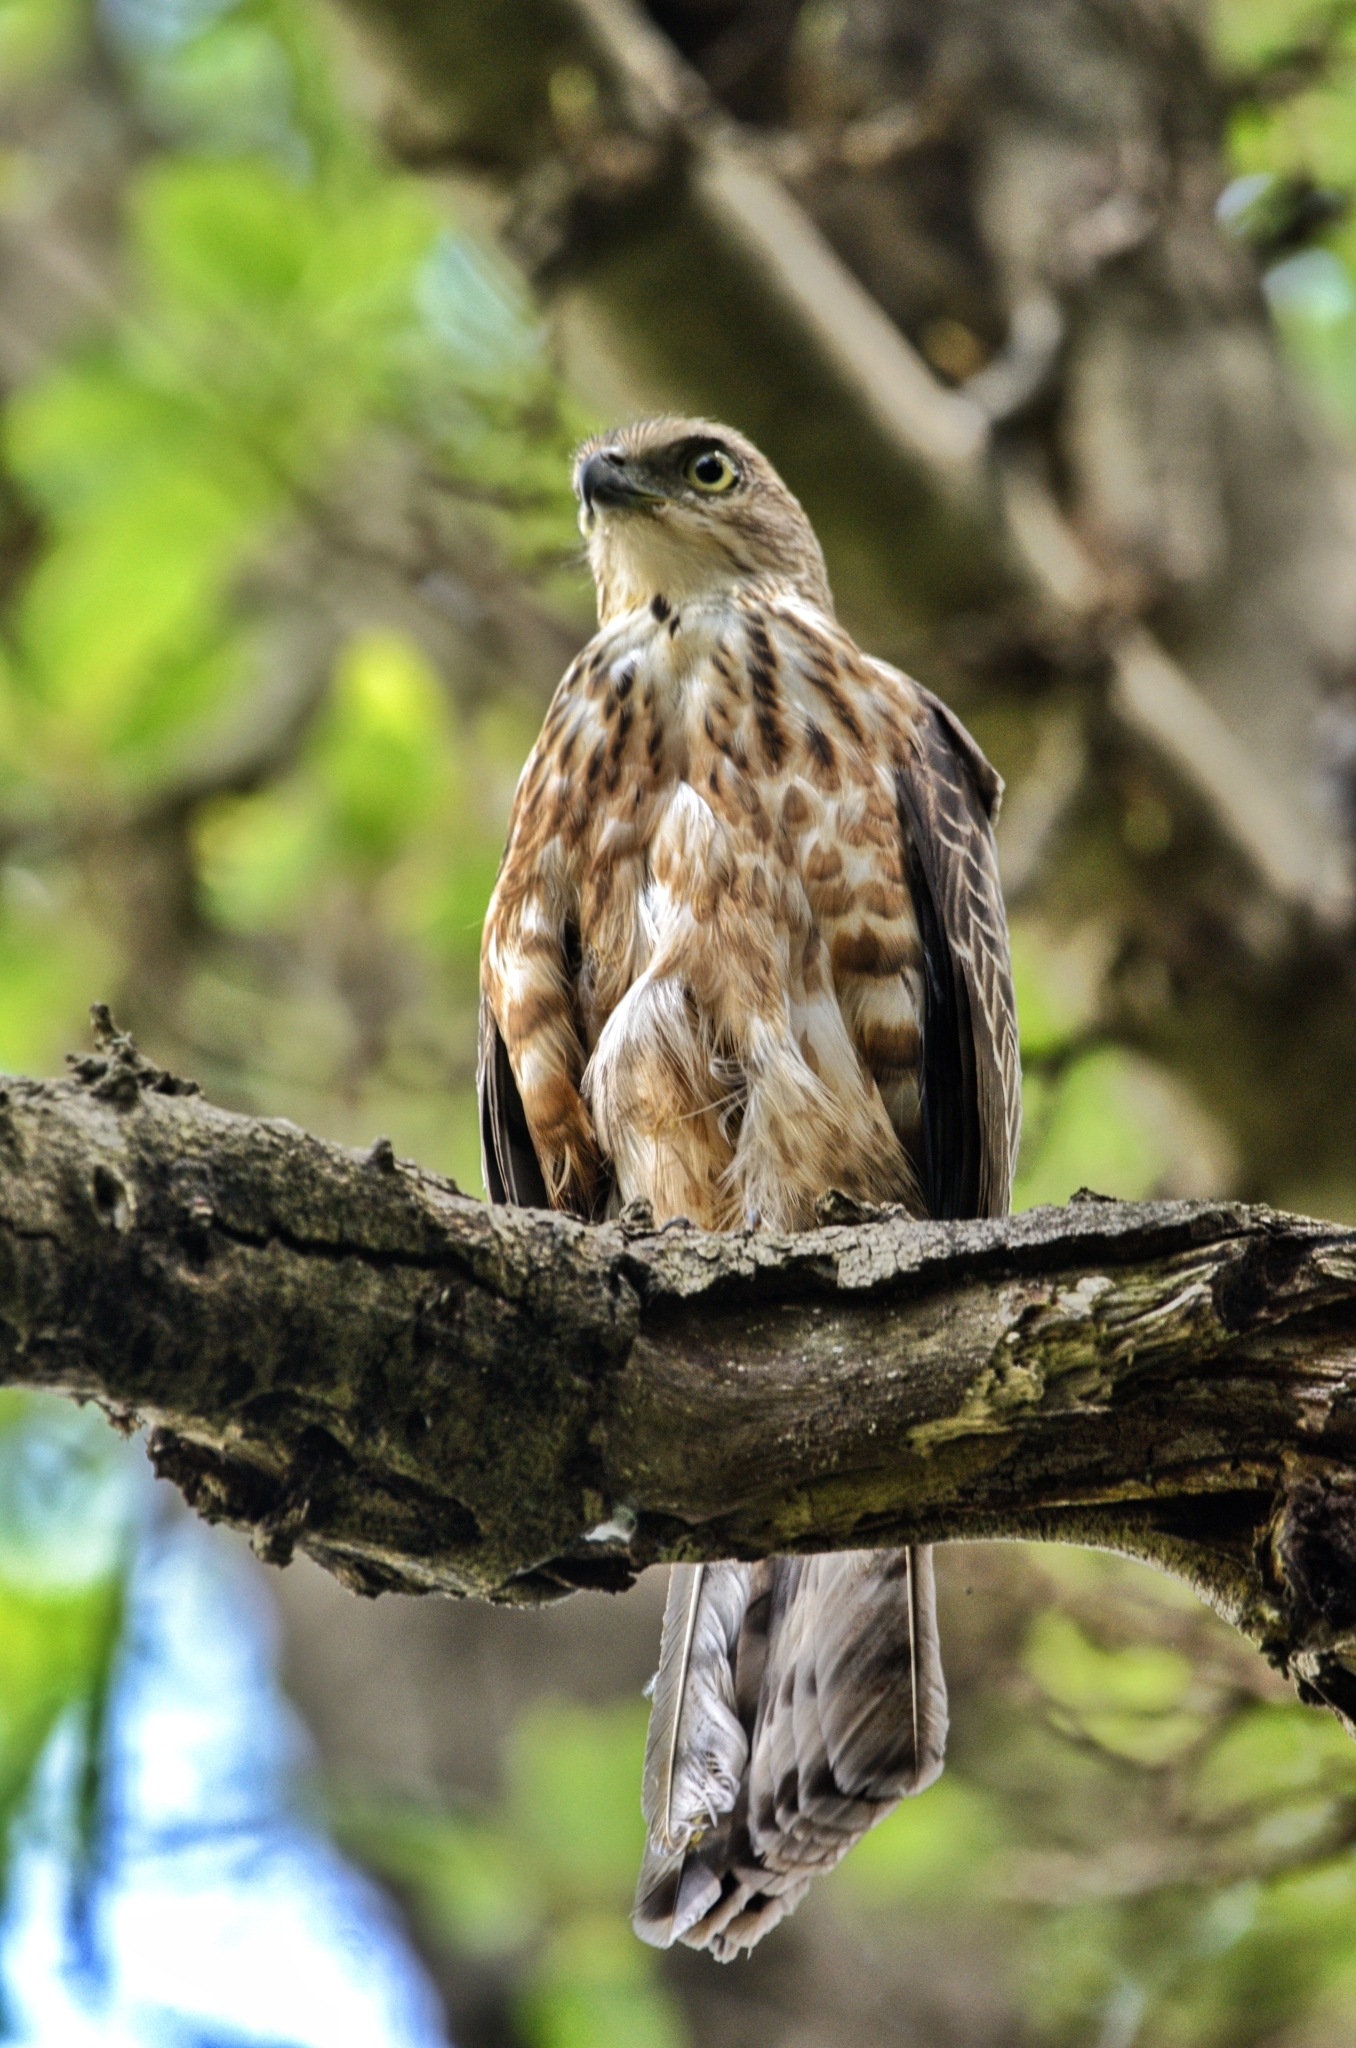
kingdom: Animalia
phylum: Chordata
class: Aves
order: Accipitriformes
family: Accipitridae
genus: Accipiter
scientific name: Accipiter badius
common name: Shikra
